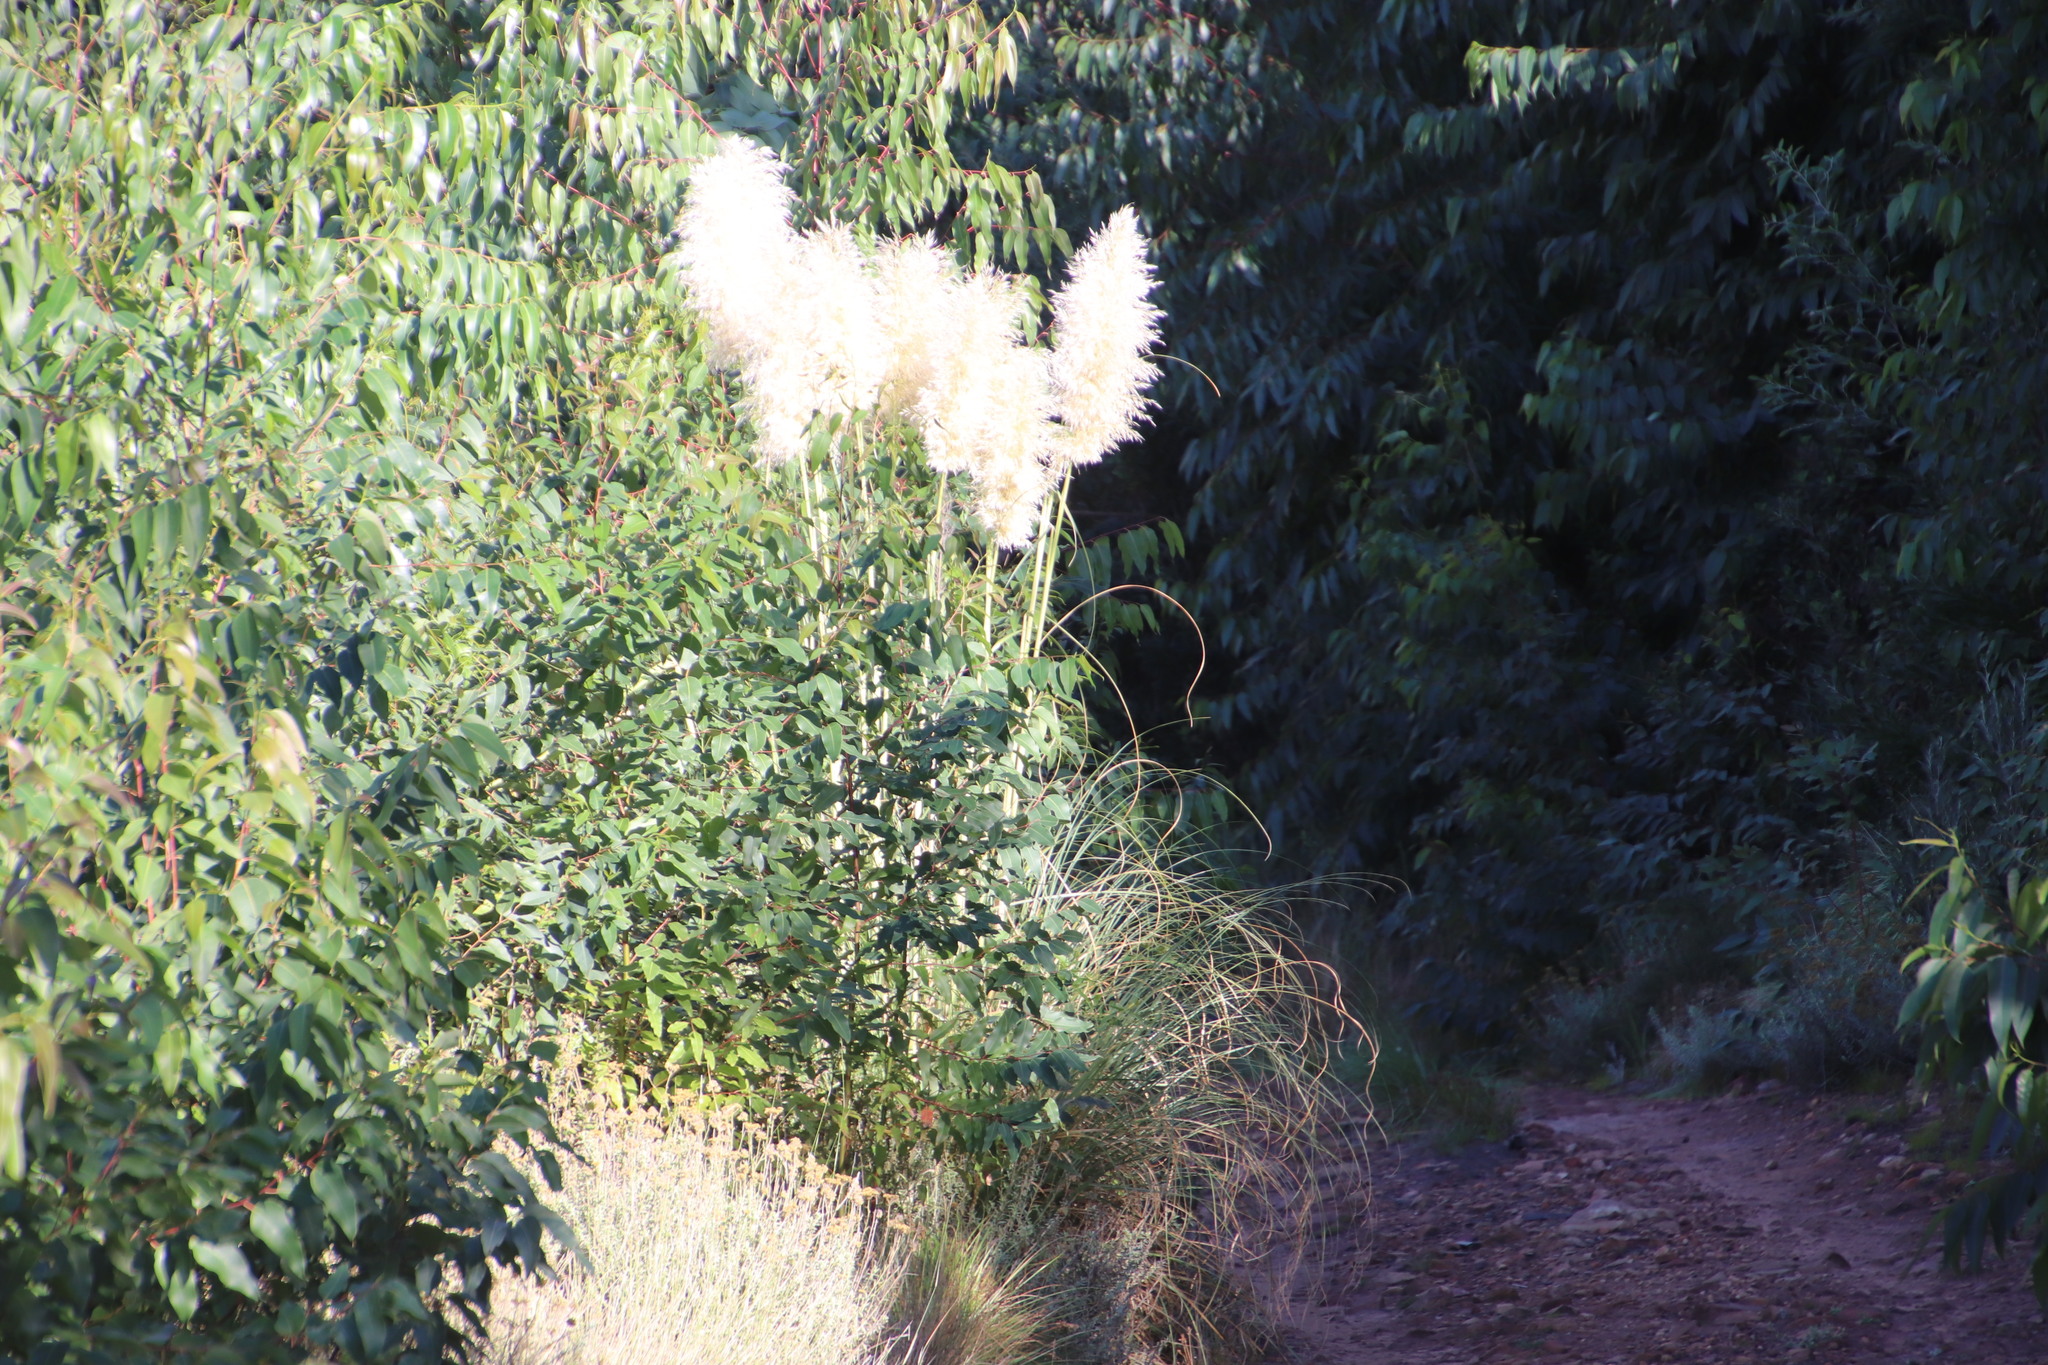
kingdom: Plantae
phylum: Tracheophyta
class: Liliopsida
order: Poales
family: Poaceae
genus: Cortaderia
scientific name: Cortaderia selloana
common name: Uruguayan pampas grass
